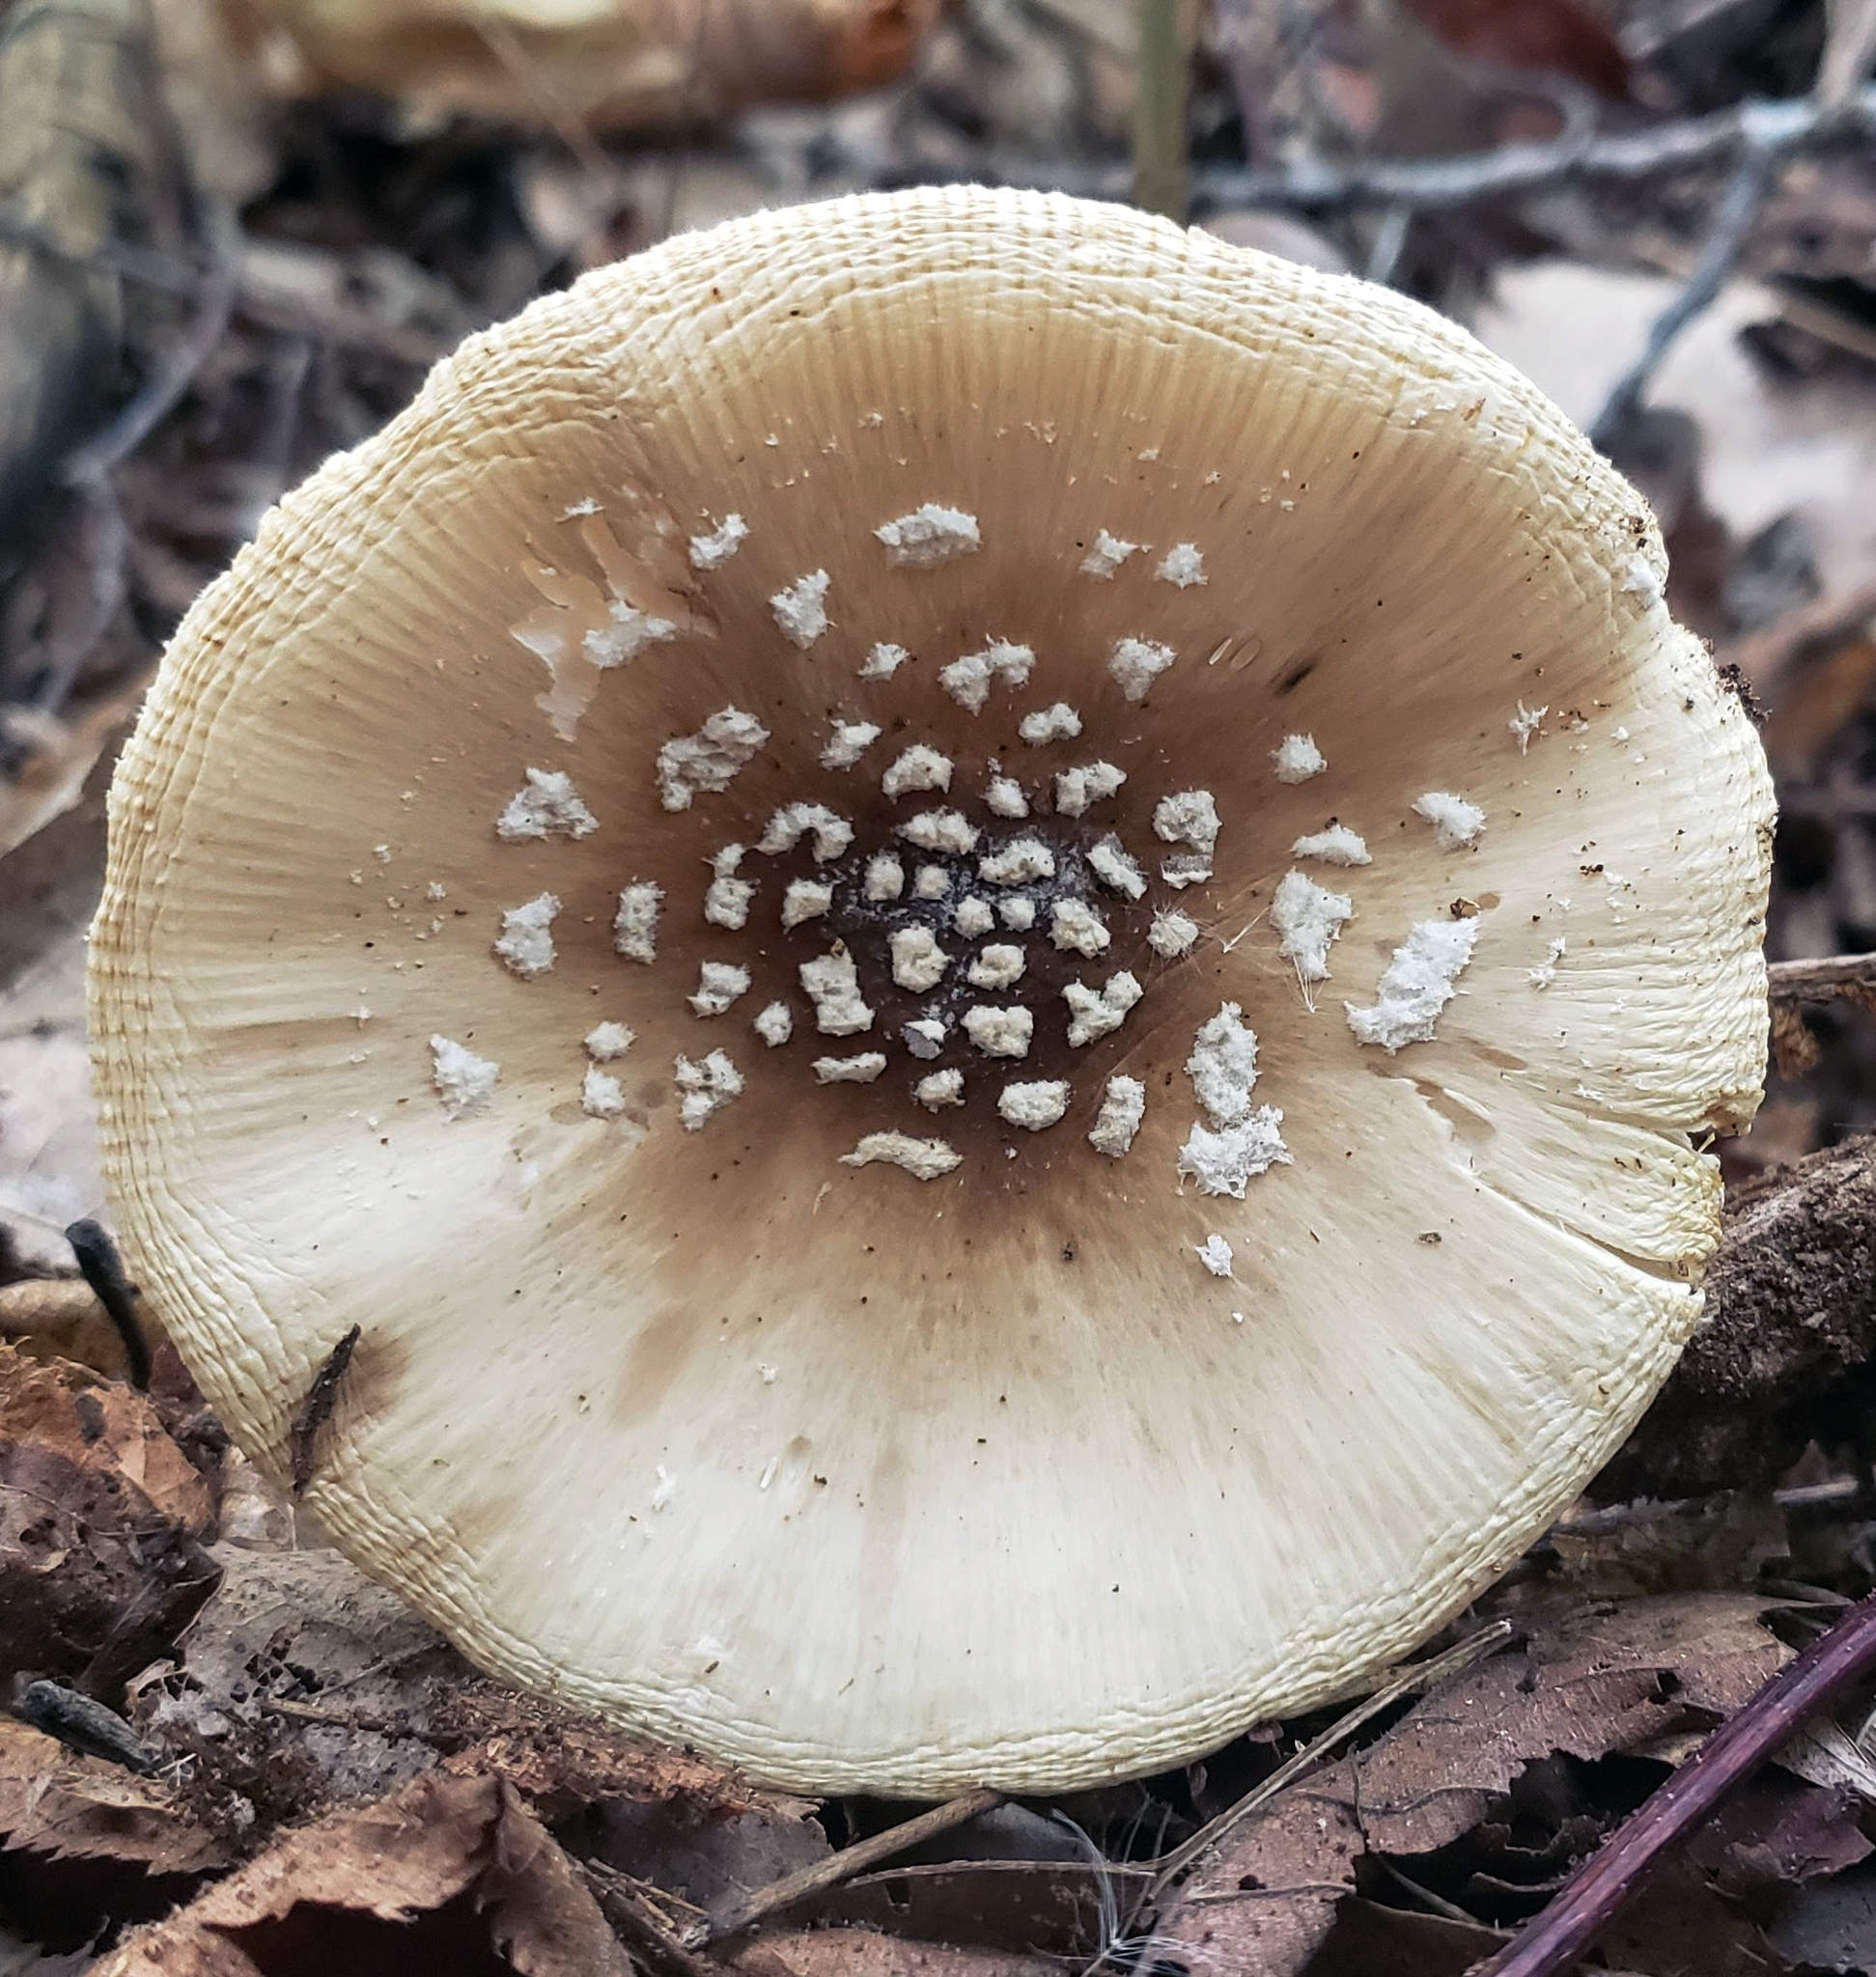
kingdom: Fungi
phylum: Basidiomycota
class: Agaricomycetes
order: Agaricales
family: Amanitaceae
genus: Amanita
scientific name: Amanita velatipes
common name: Great funnel-veil amanita
